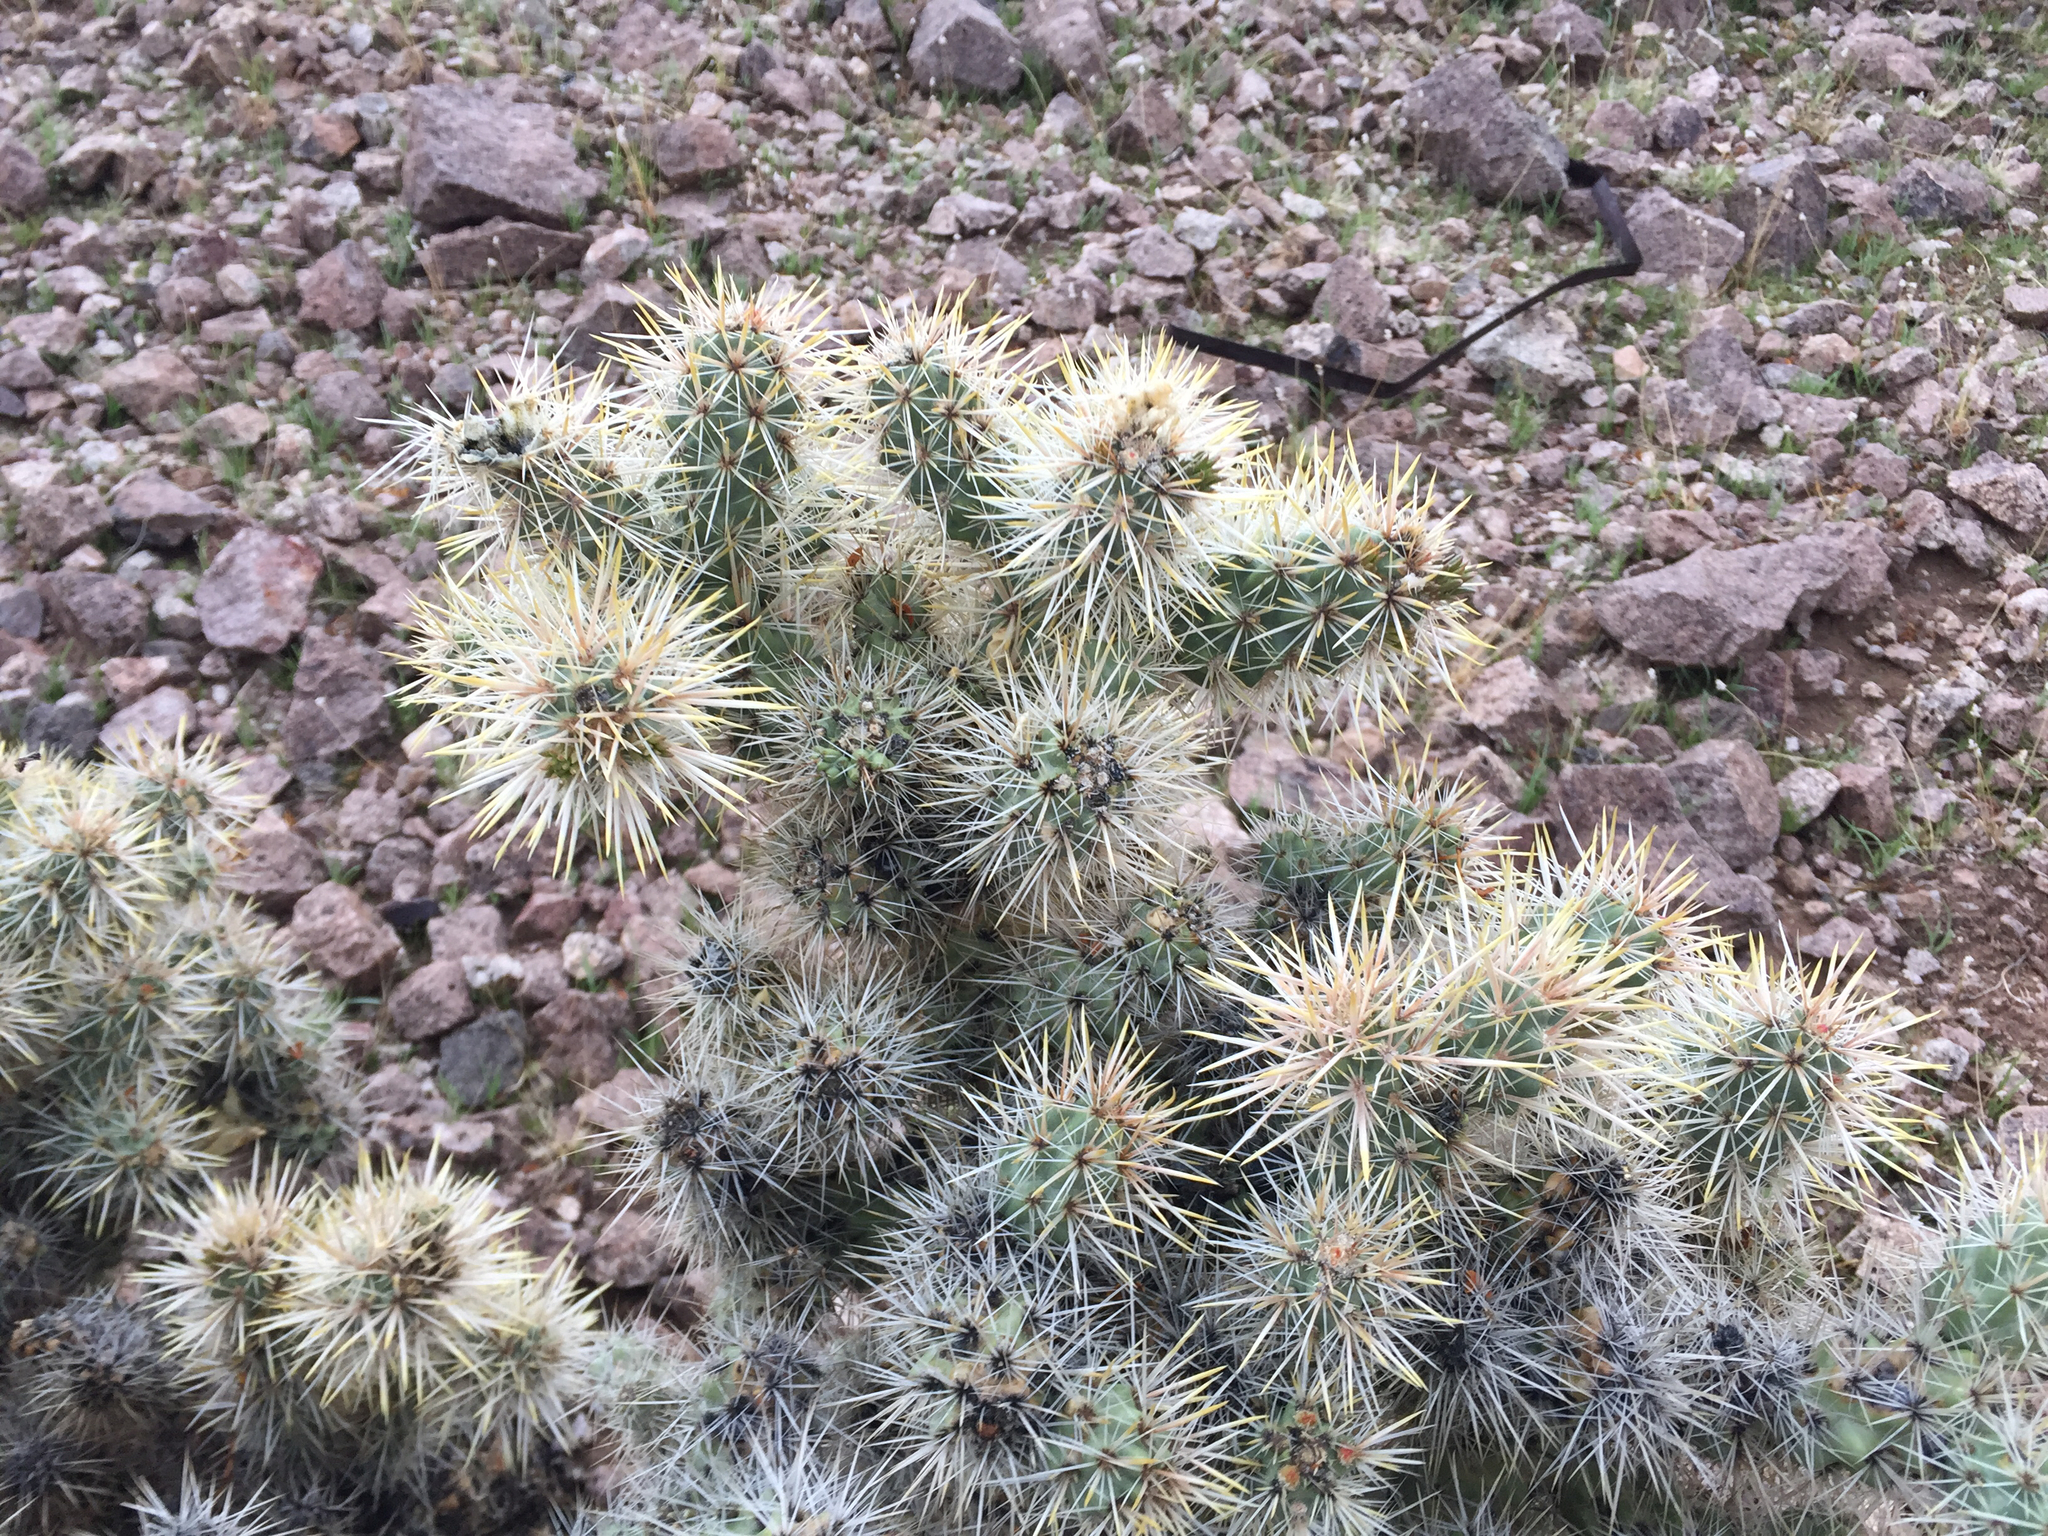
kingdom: Plantae
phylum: Tracheophyta
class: Magnoliopsida
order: Caryophyllales
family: Cactaceae
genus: Cylindropuntia
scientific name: Cylindropuntia echinocarpa
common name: Ground cholla
